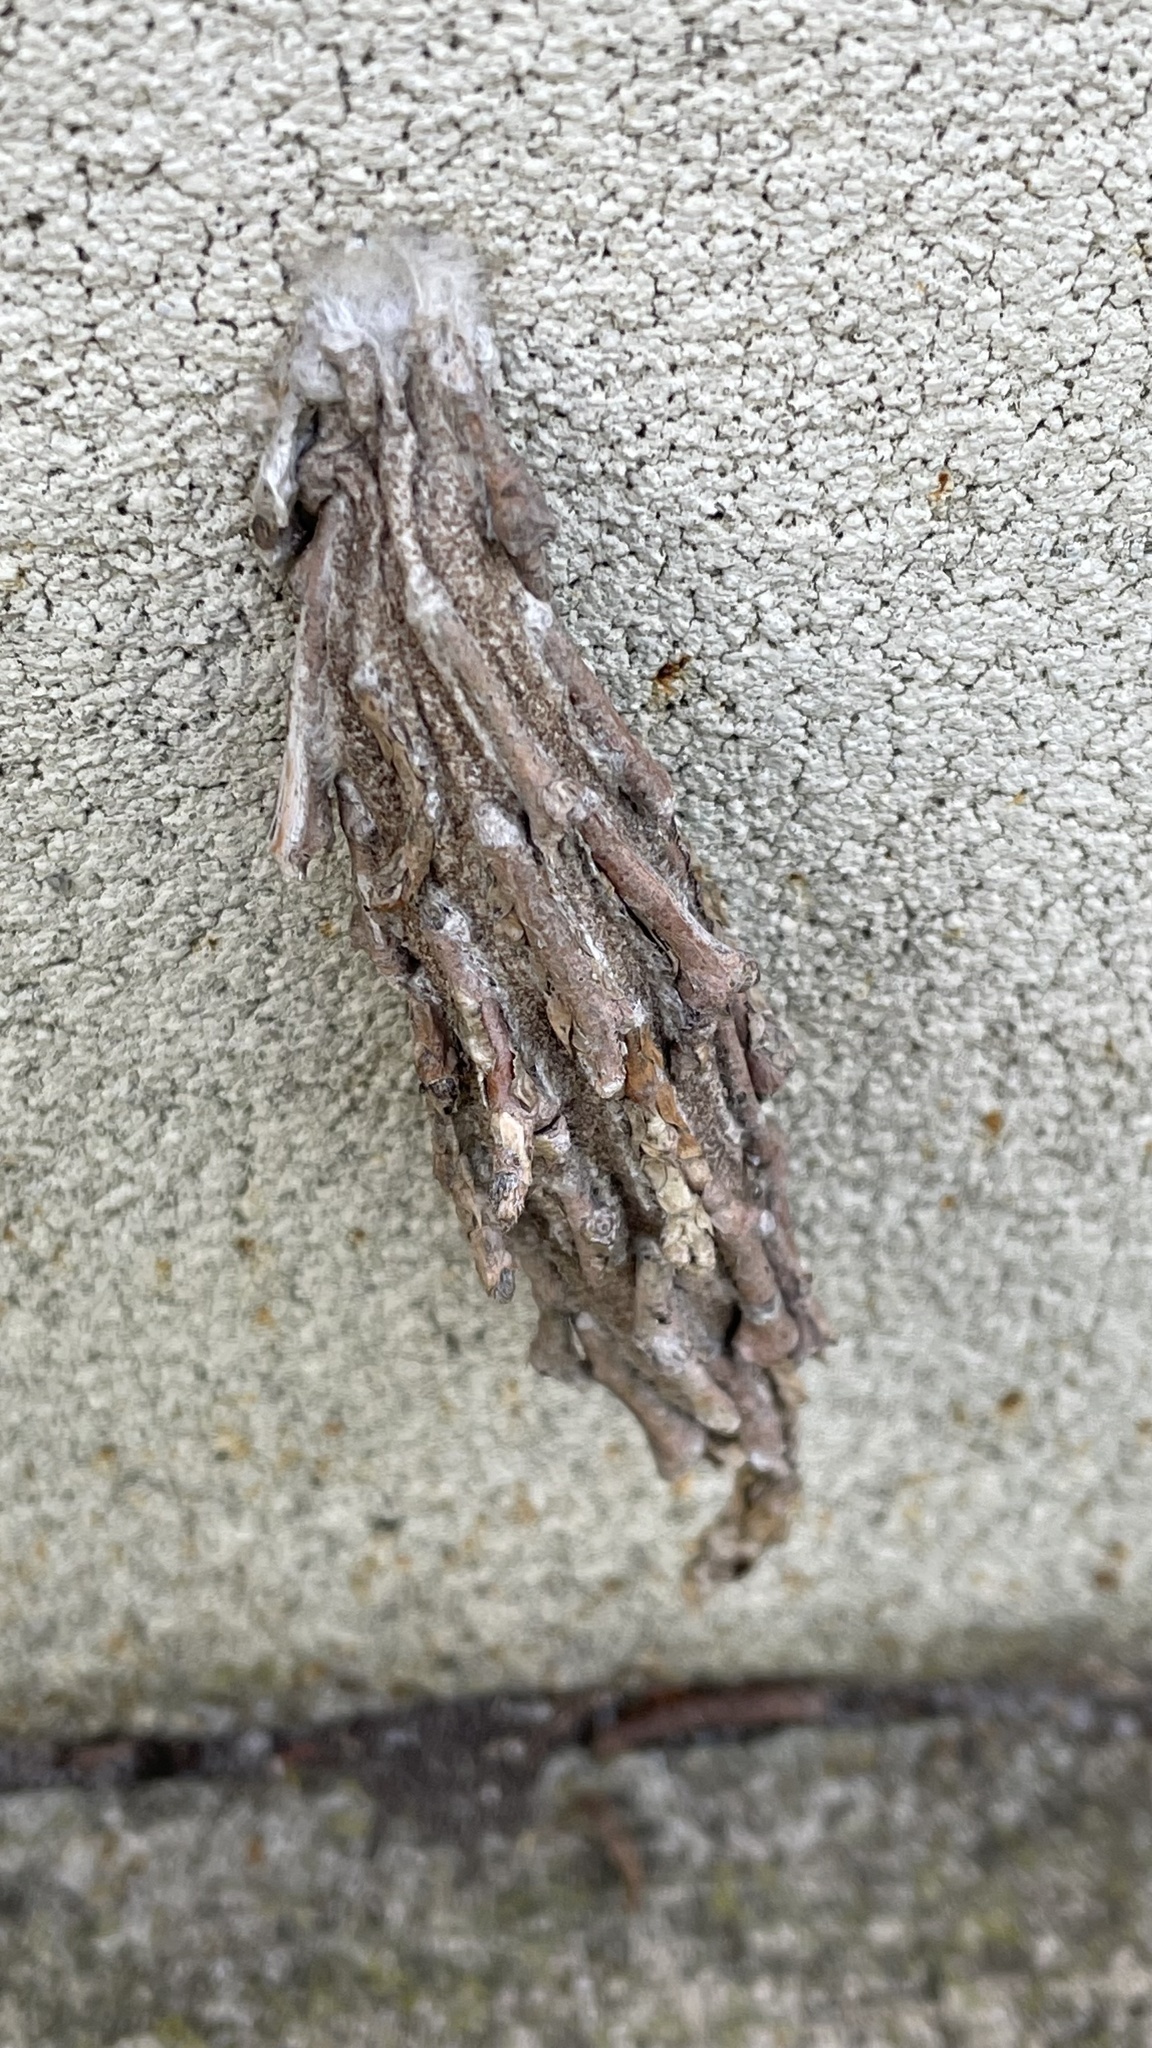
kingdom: Animalia
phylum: Arthropoda
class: Insecta
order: Lepidoptera
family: Psychidae
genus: Metura
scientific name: Metura elongatus
